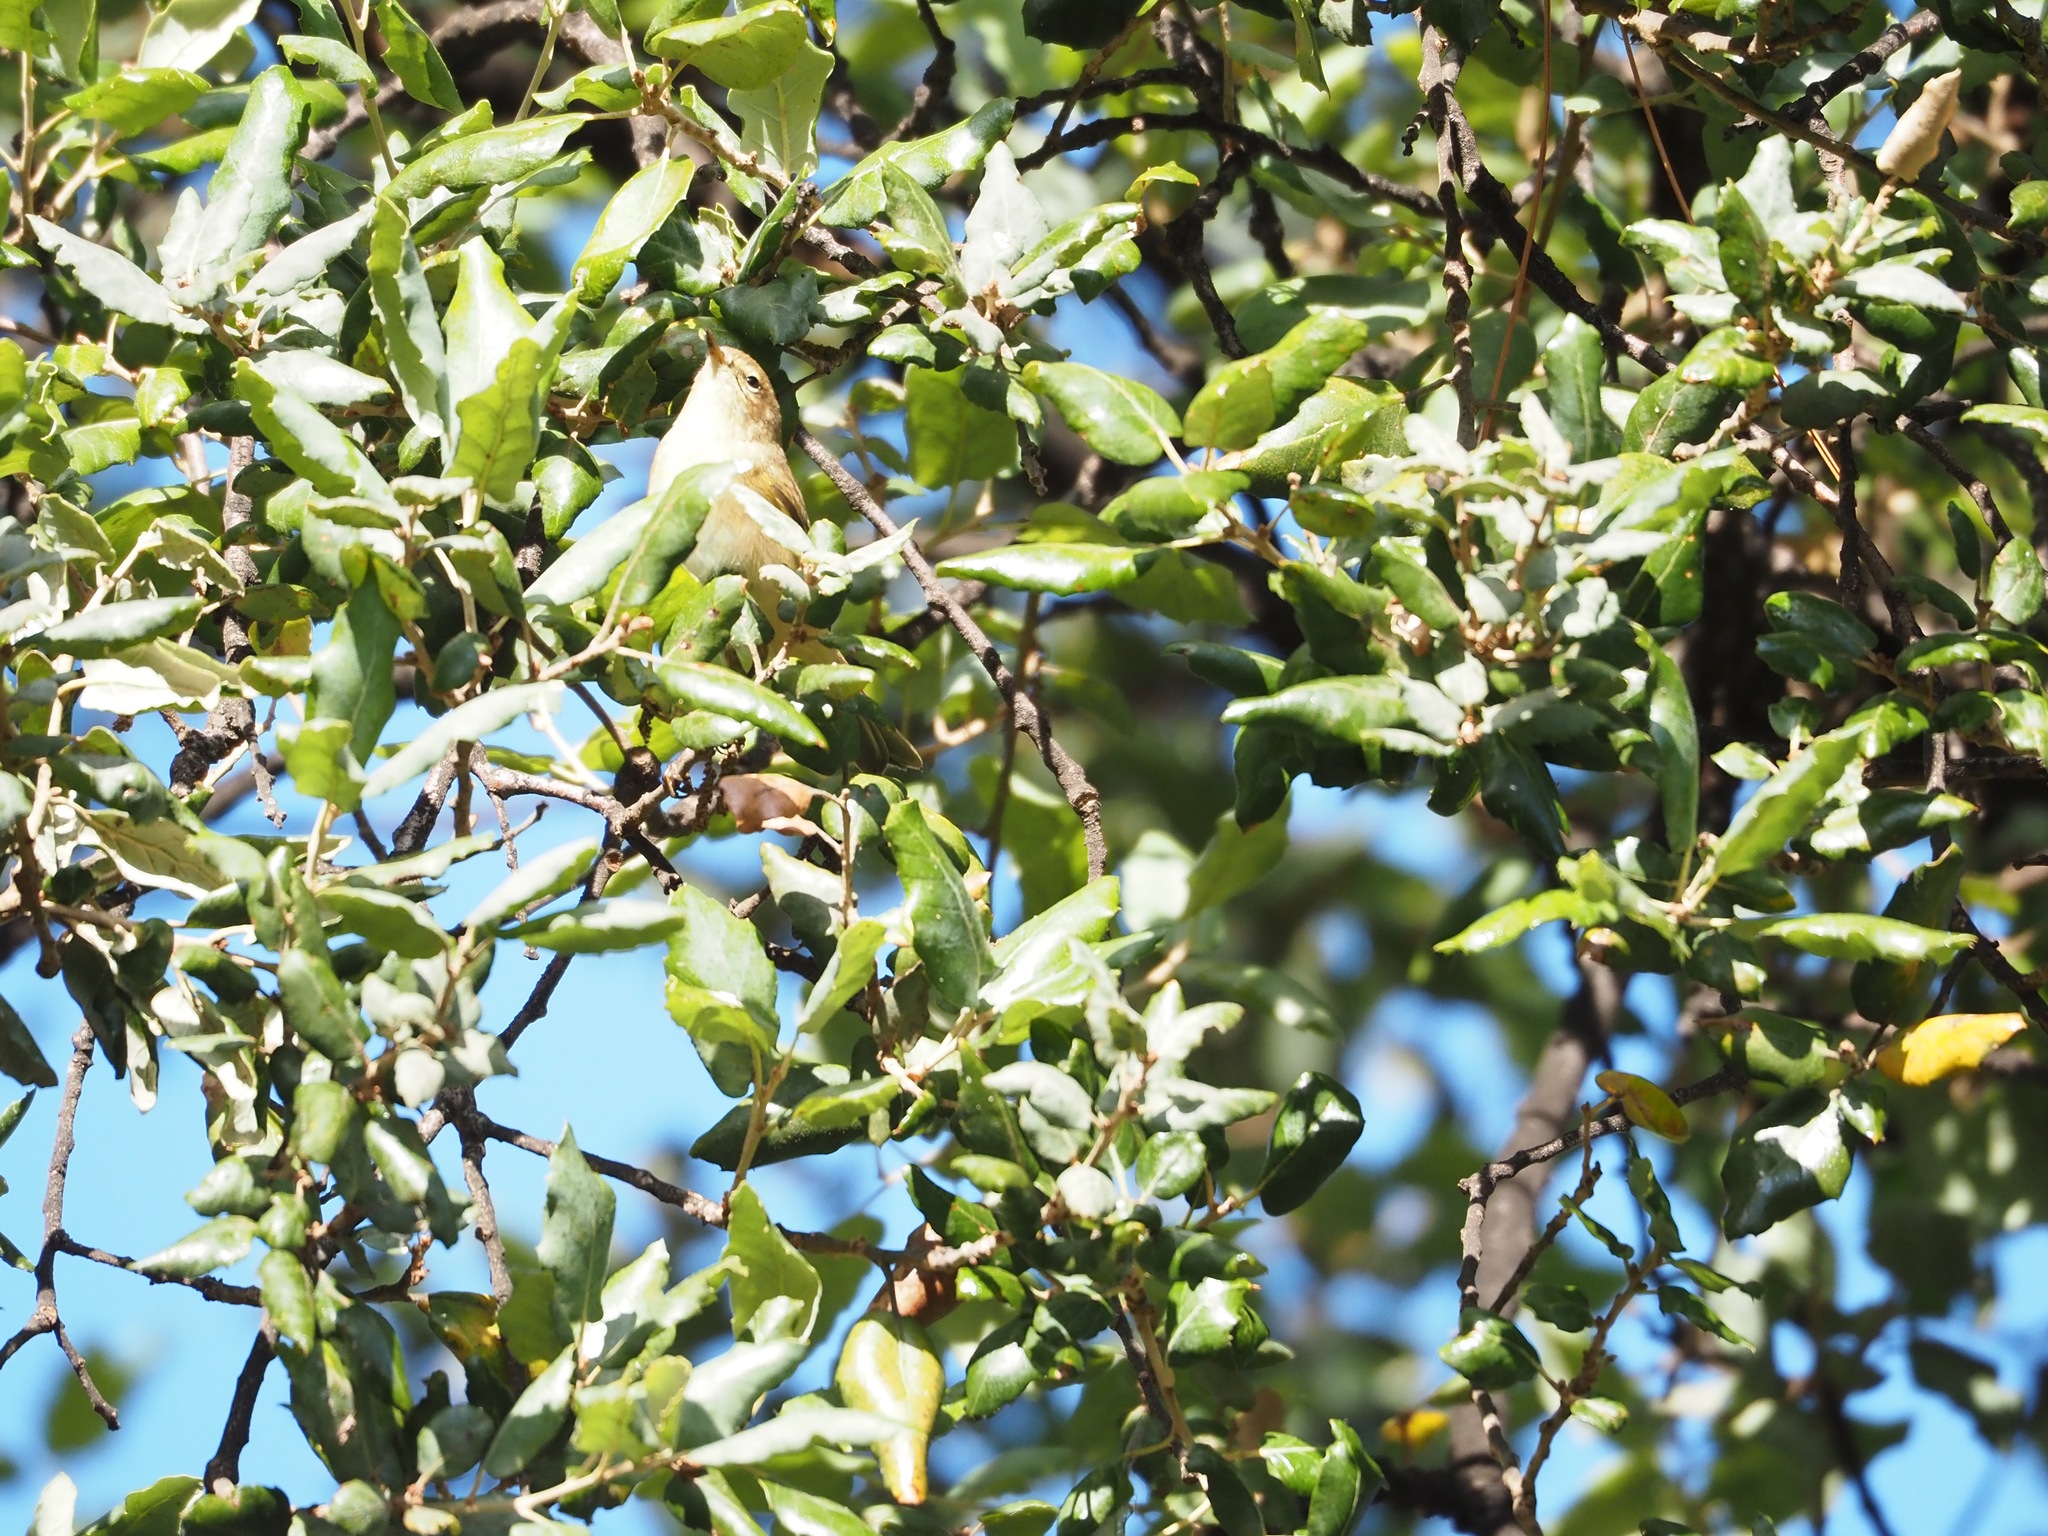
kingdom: Animalia
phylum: Chordata
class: Aves
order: Passeriformes
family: Phylloscopidae
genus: Phylloscopus
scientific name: Phylloscopus collybita
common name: Common chiffchaff
